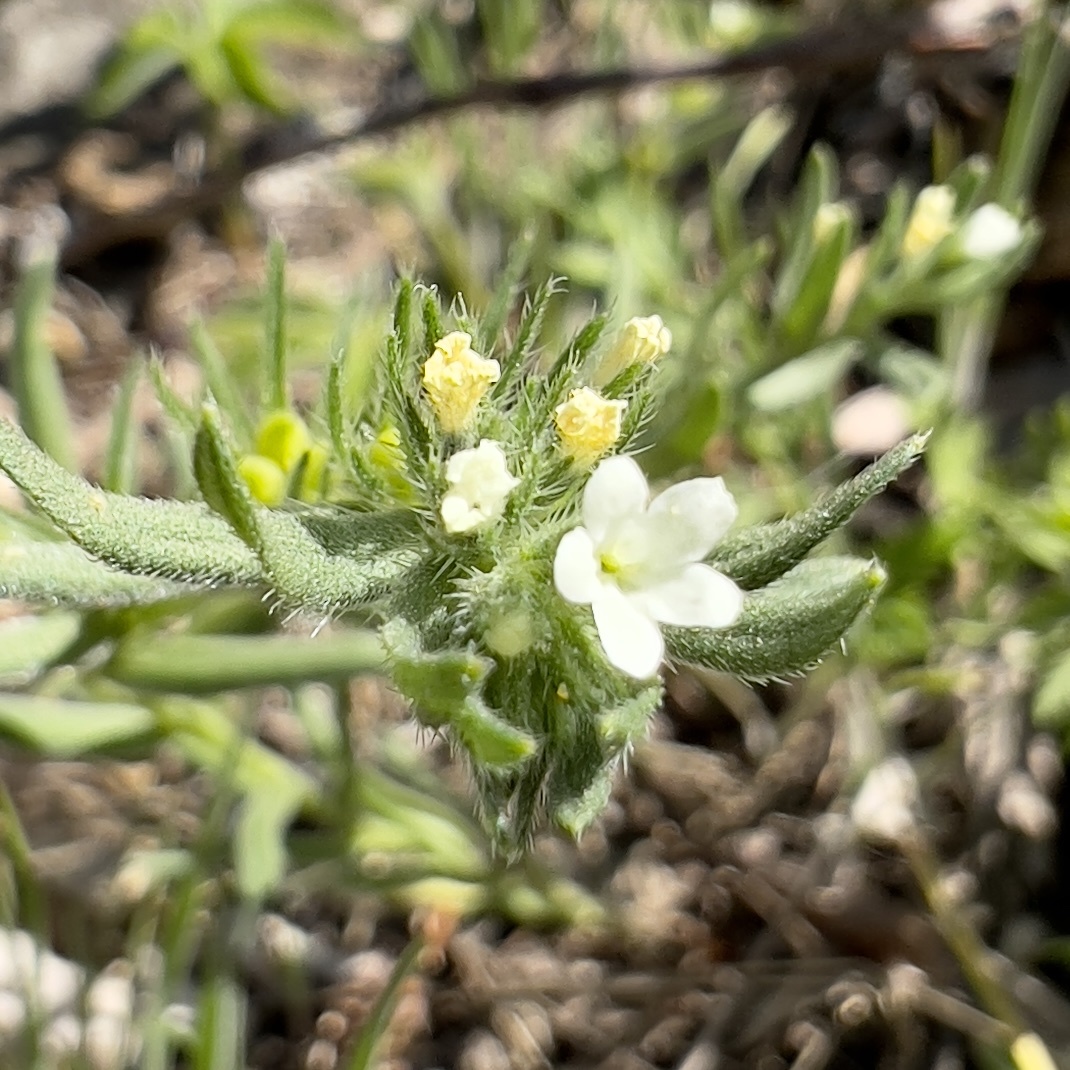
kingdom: Plantae
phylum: Tracheophyta
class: Magnoliopsida
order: Boraginales
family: Boraginaceae
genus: Buglossoides
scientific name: Buglossoides arvensis
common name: Corn gromwell
